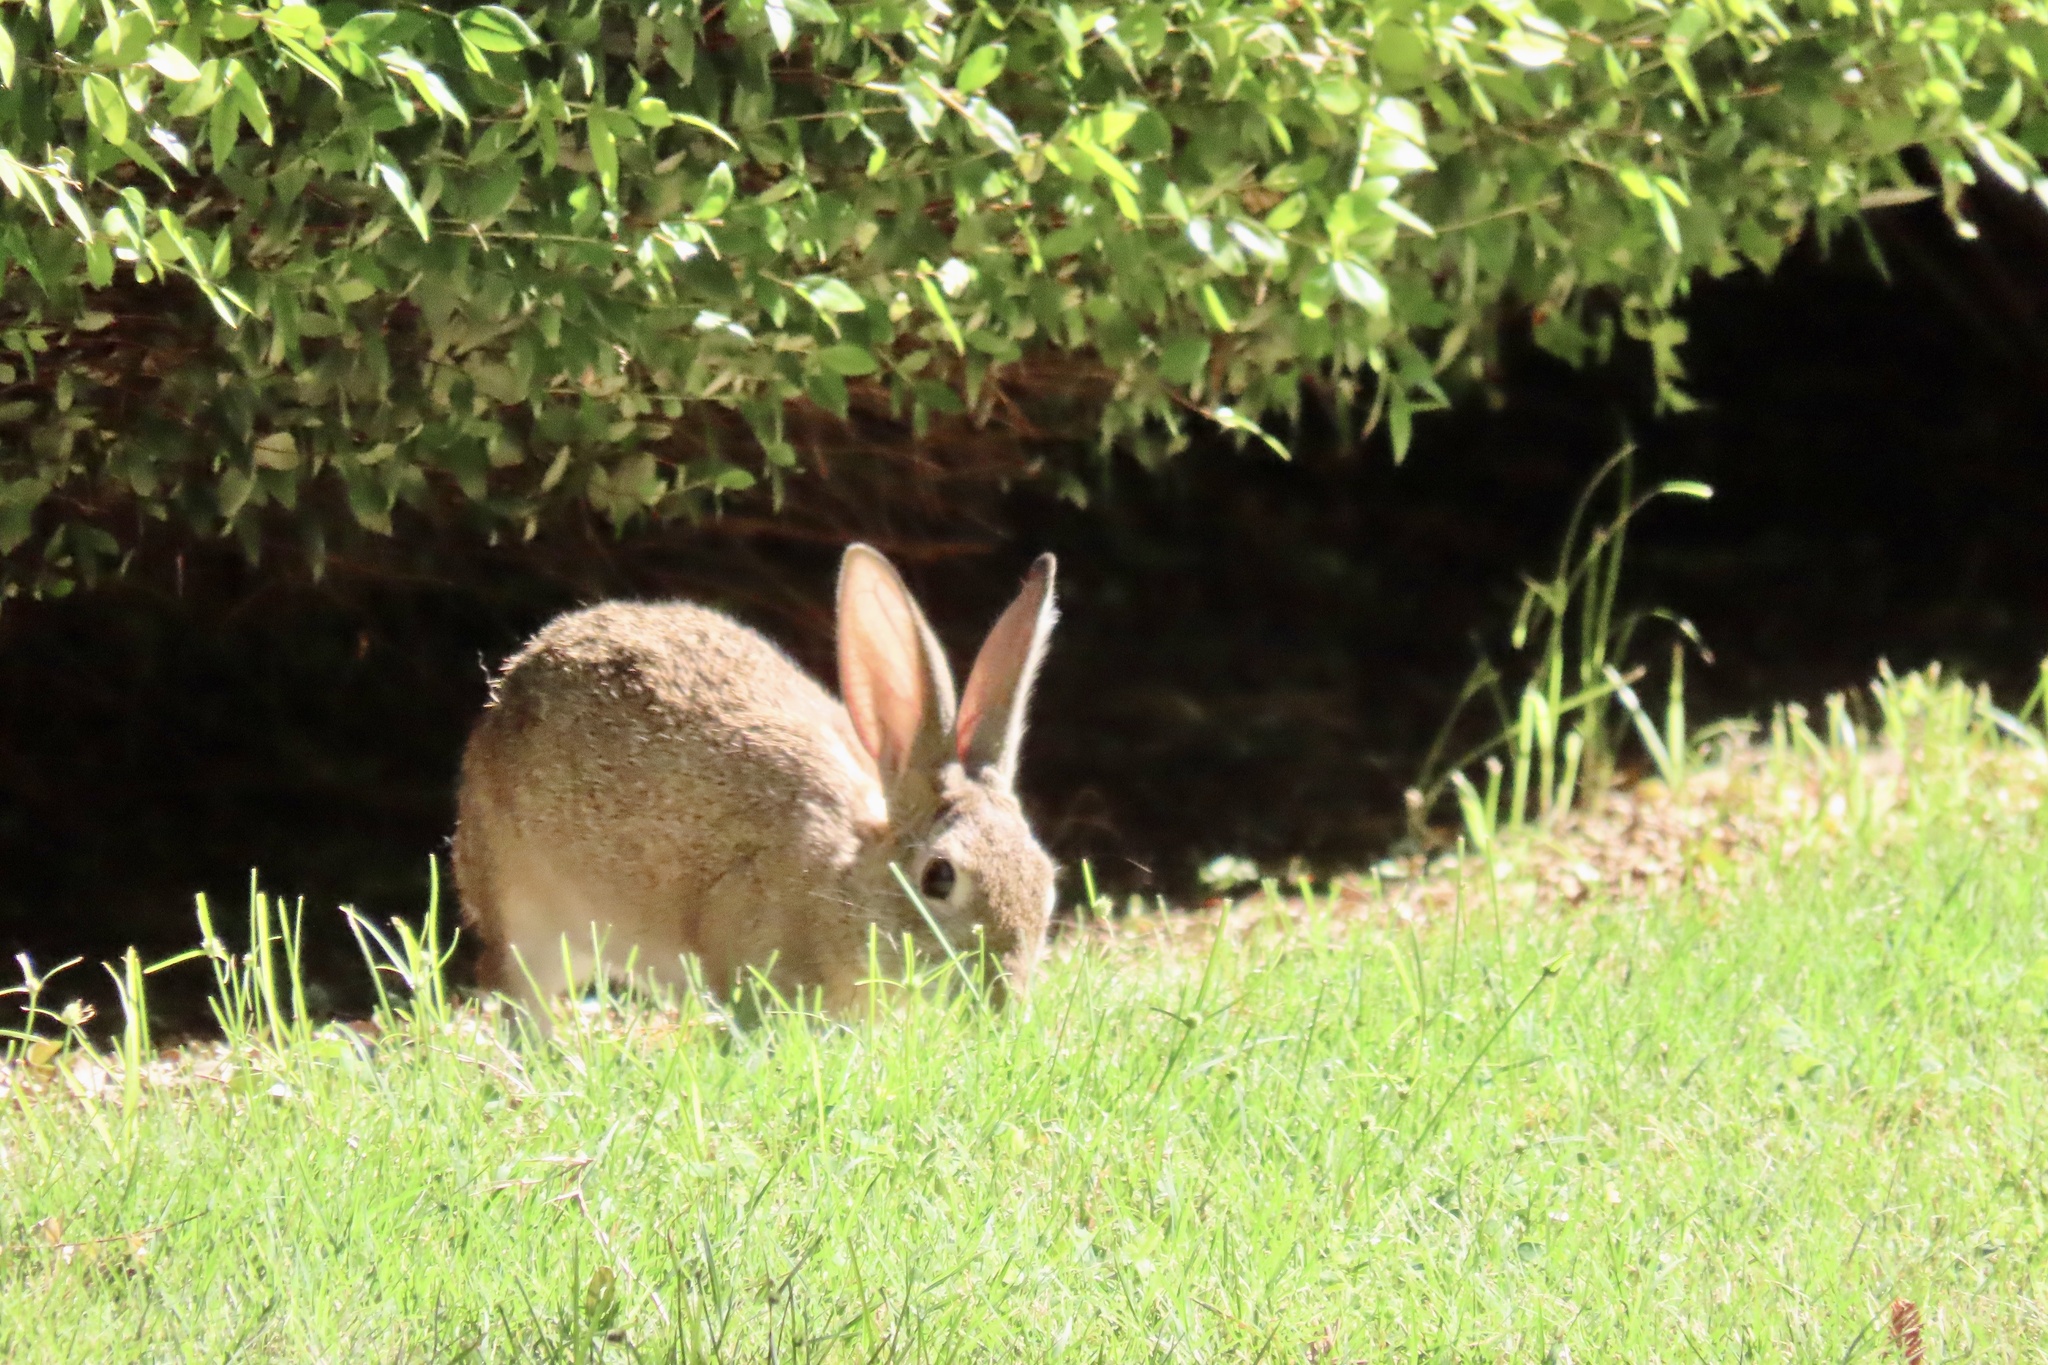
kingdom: Animalia
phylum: Chordata
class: Mammalia
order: Lagomorpha
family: Leporidae
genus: Sylvilagus
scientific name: Sylvilagus audubonii
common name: Desert cottontail
